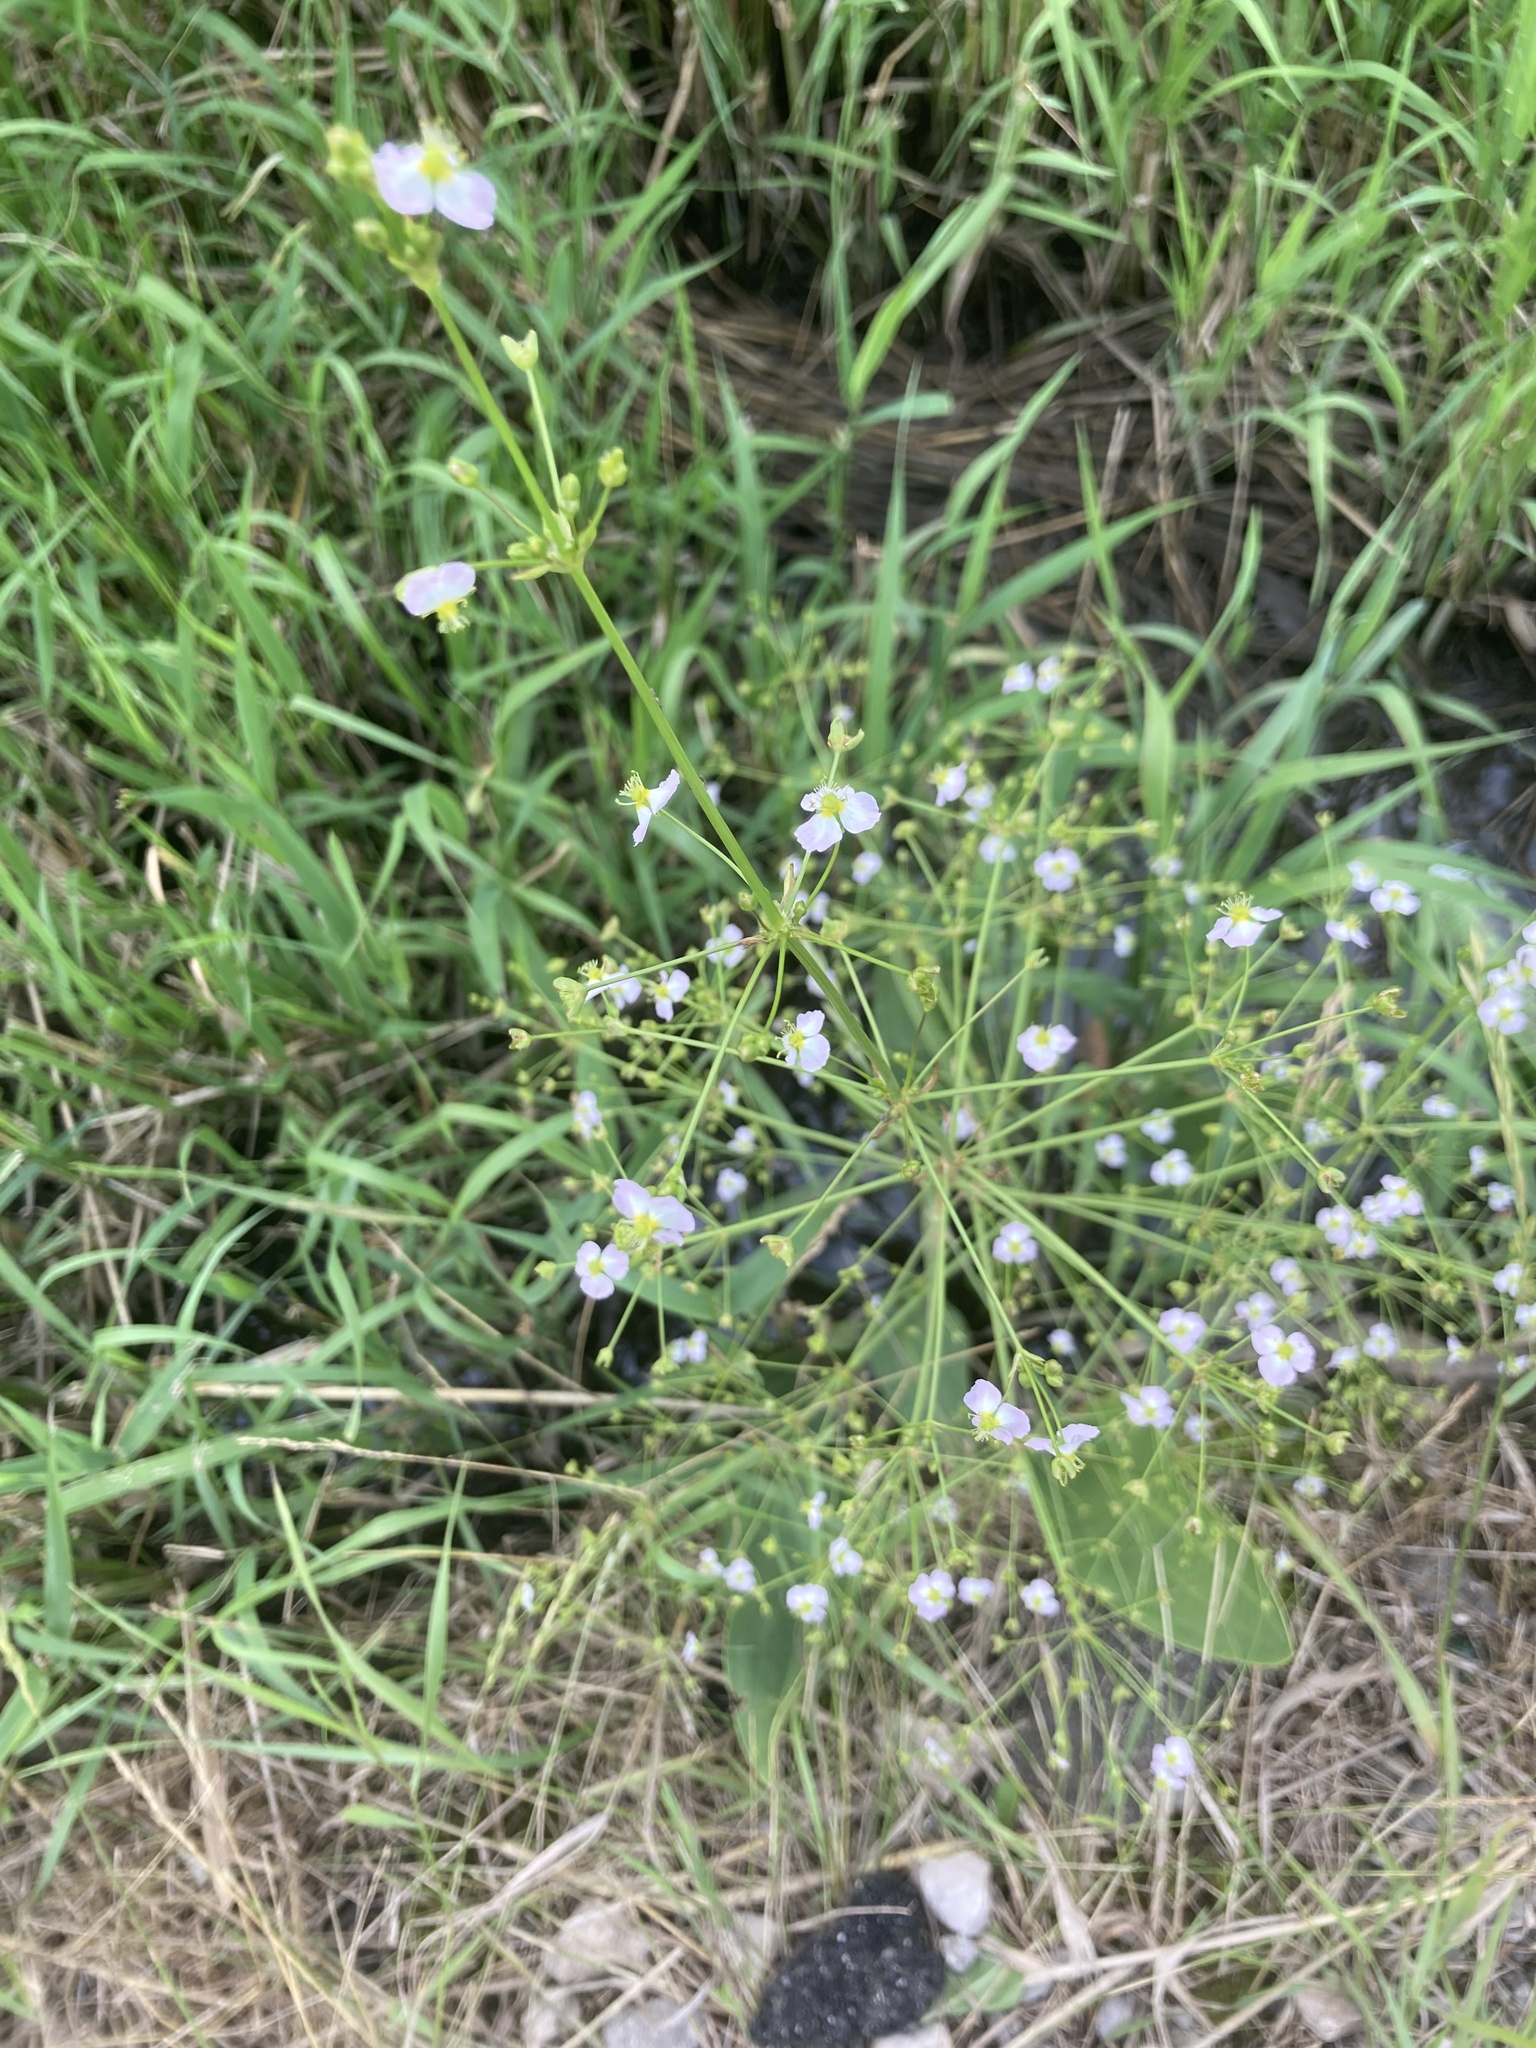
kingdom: Plantae
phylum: Tracheophyta
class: Liliopsida
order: Alismatales
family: Alismataceae
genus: Alisma
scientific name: Alisma plantago-aquatica
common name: Water-plantain
